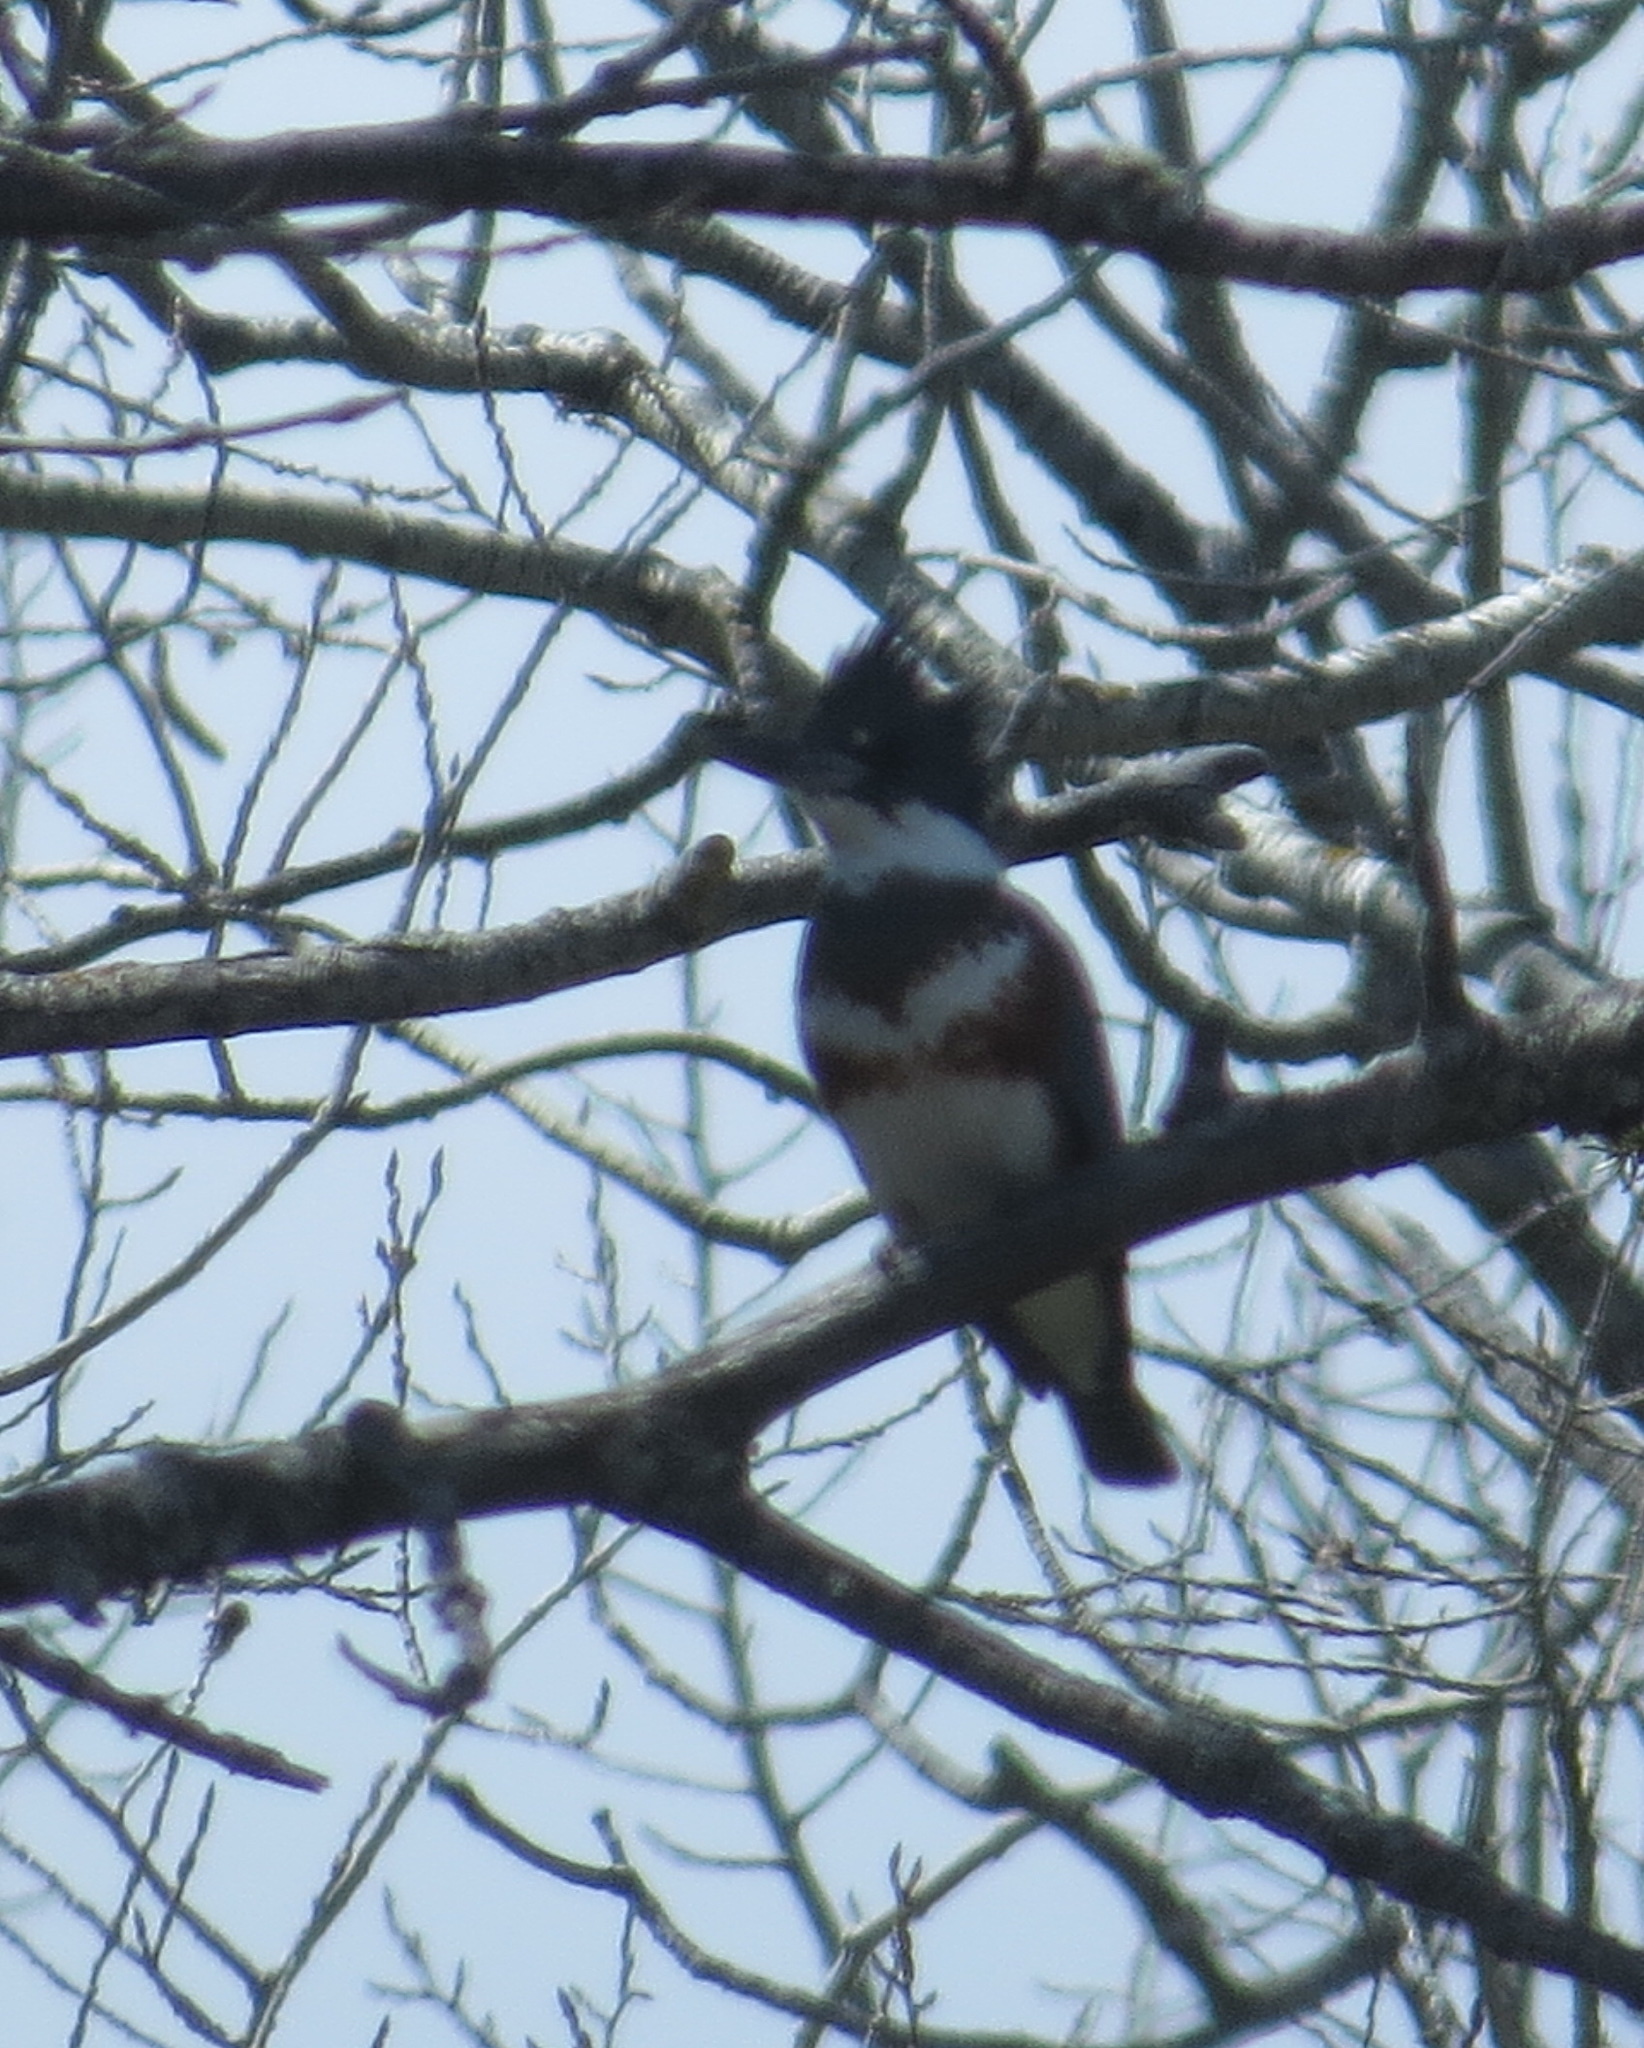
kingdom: Animalia
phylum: Chordata
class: Aves
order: Coraciiformes
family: Alcedinidae
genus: Megaceryle
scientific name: Megaceryle alcyon
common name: Belted kingfisher
